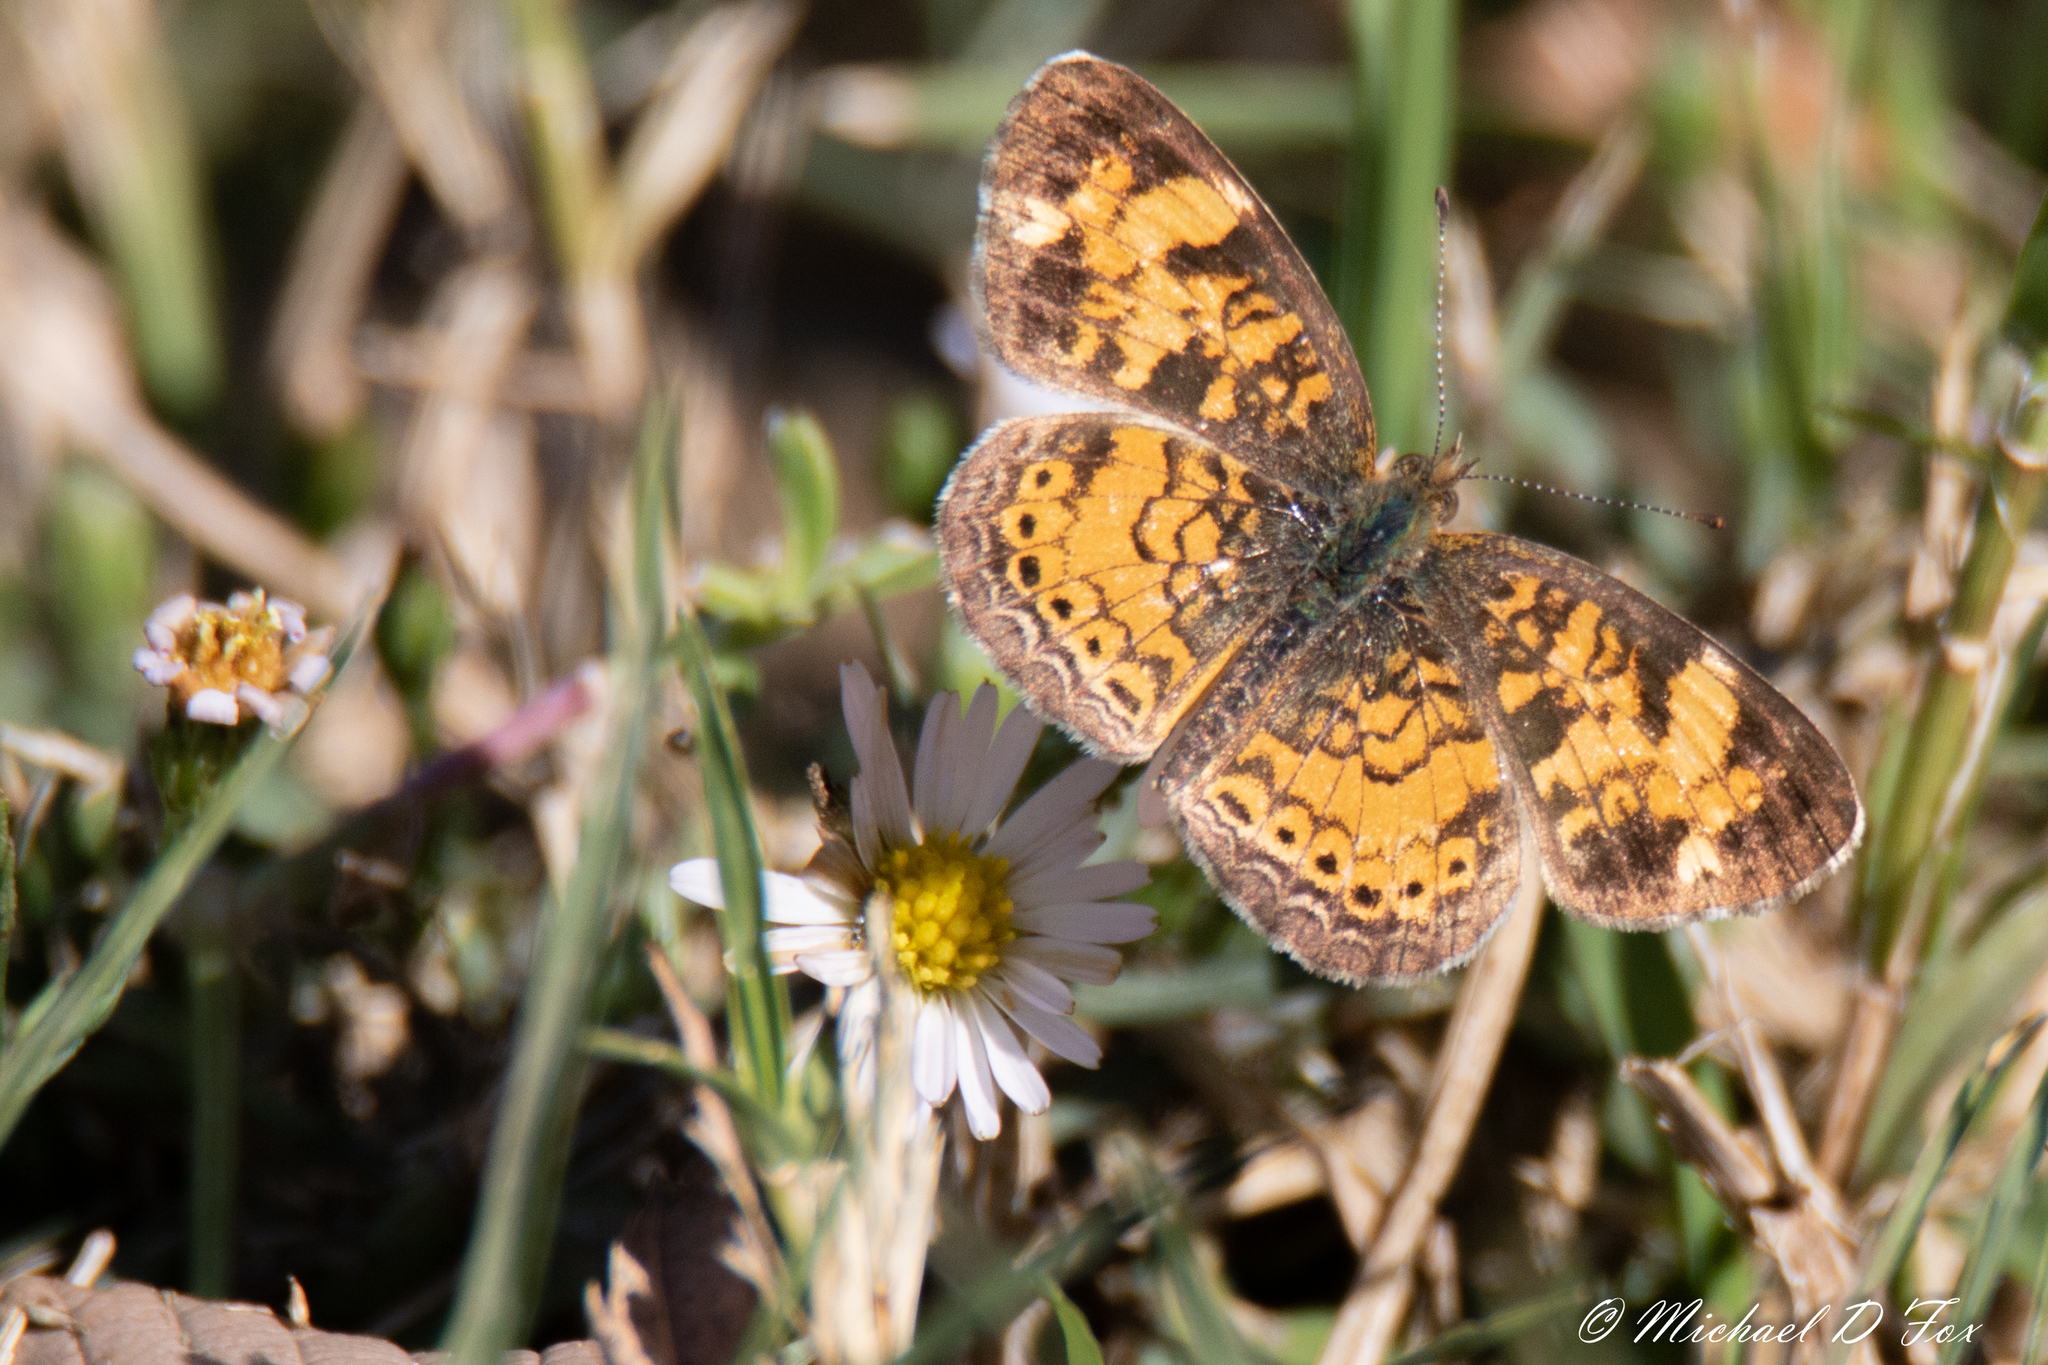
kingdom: Animalia
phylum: Arthropoda
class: Insecta
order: Lepidoptera
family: Nymphalidae
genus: Phyciodes
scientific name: Phyciodes tharos
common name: Pearl crescent
